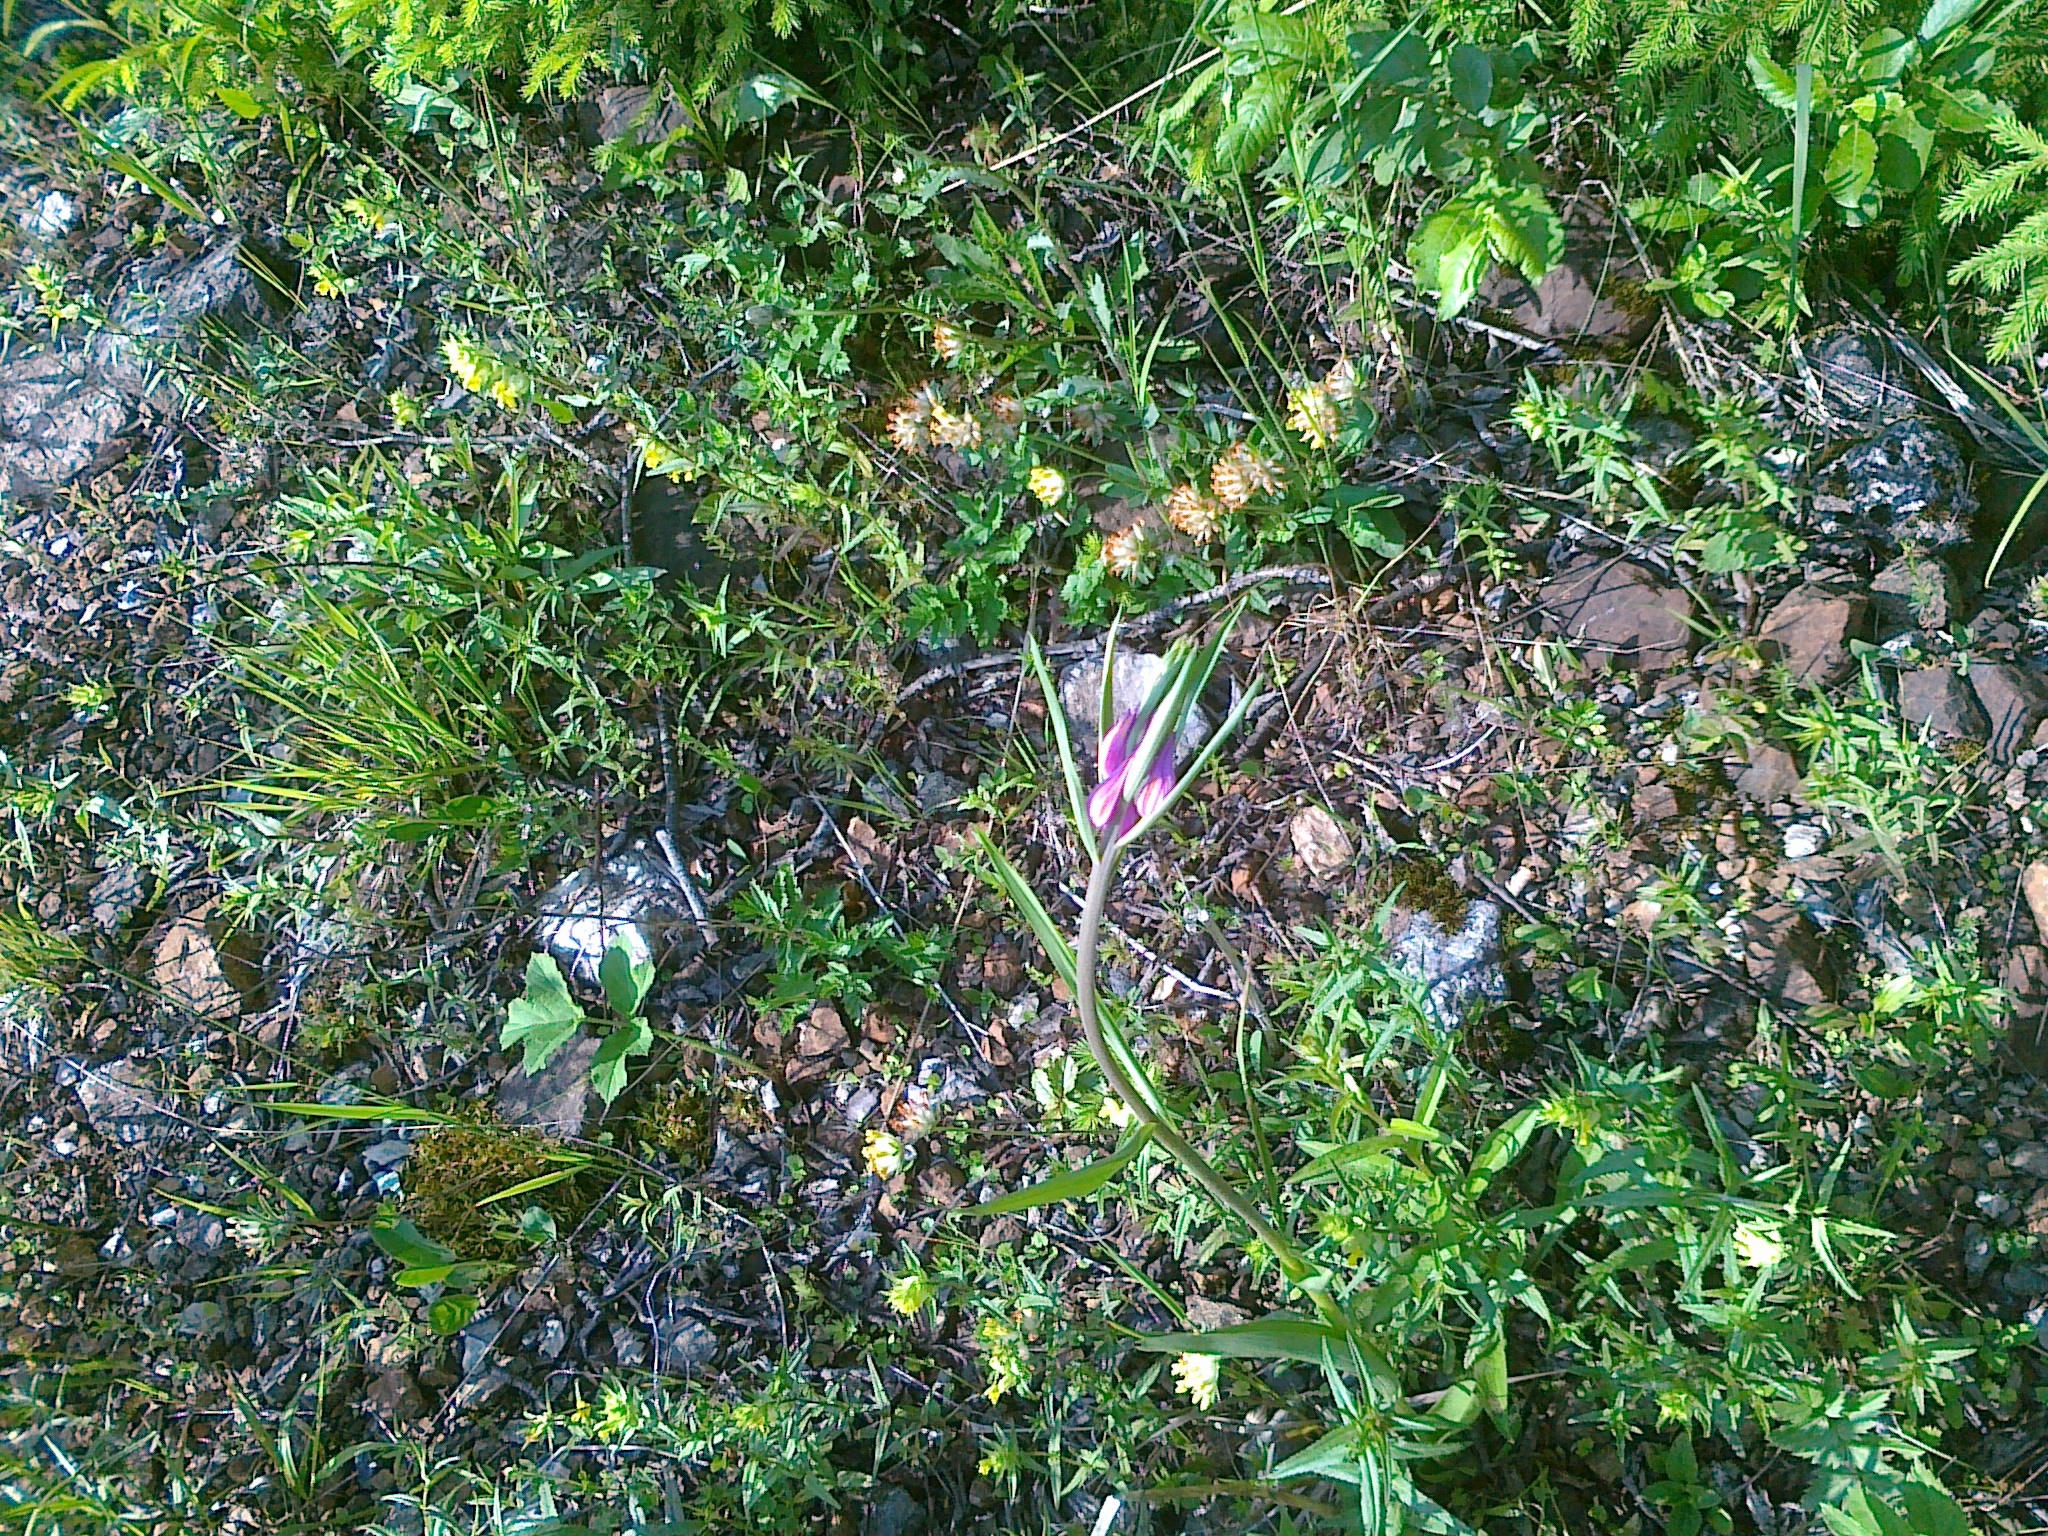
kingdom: Plantae
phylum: Tracheophyta
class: Liliopsida
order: Asparagales
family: Orchidaceae
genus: Cephalanthera
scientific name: Cephalanthera rubra
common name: Red helleborine
